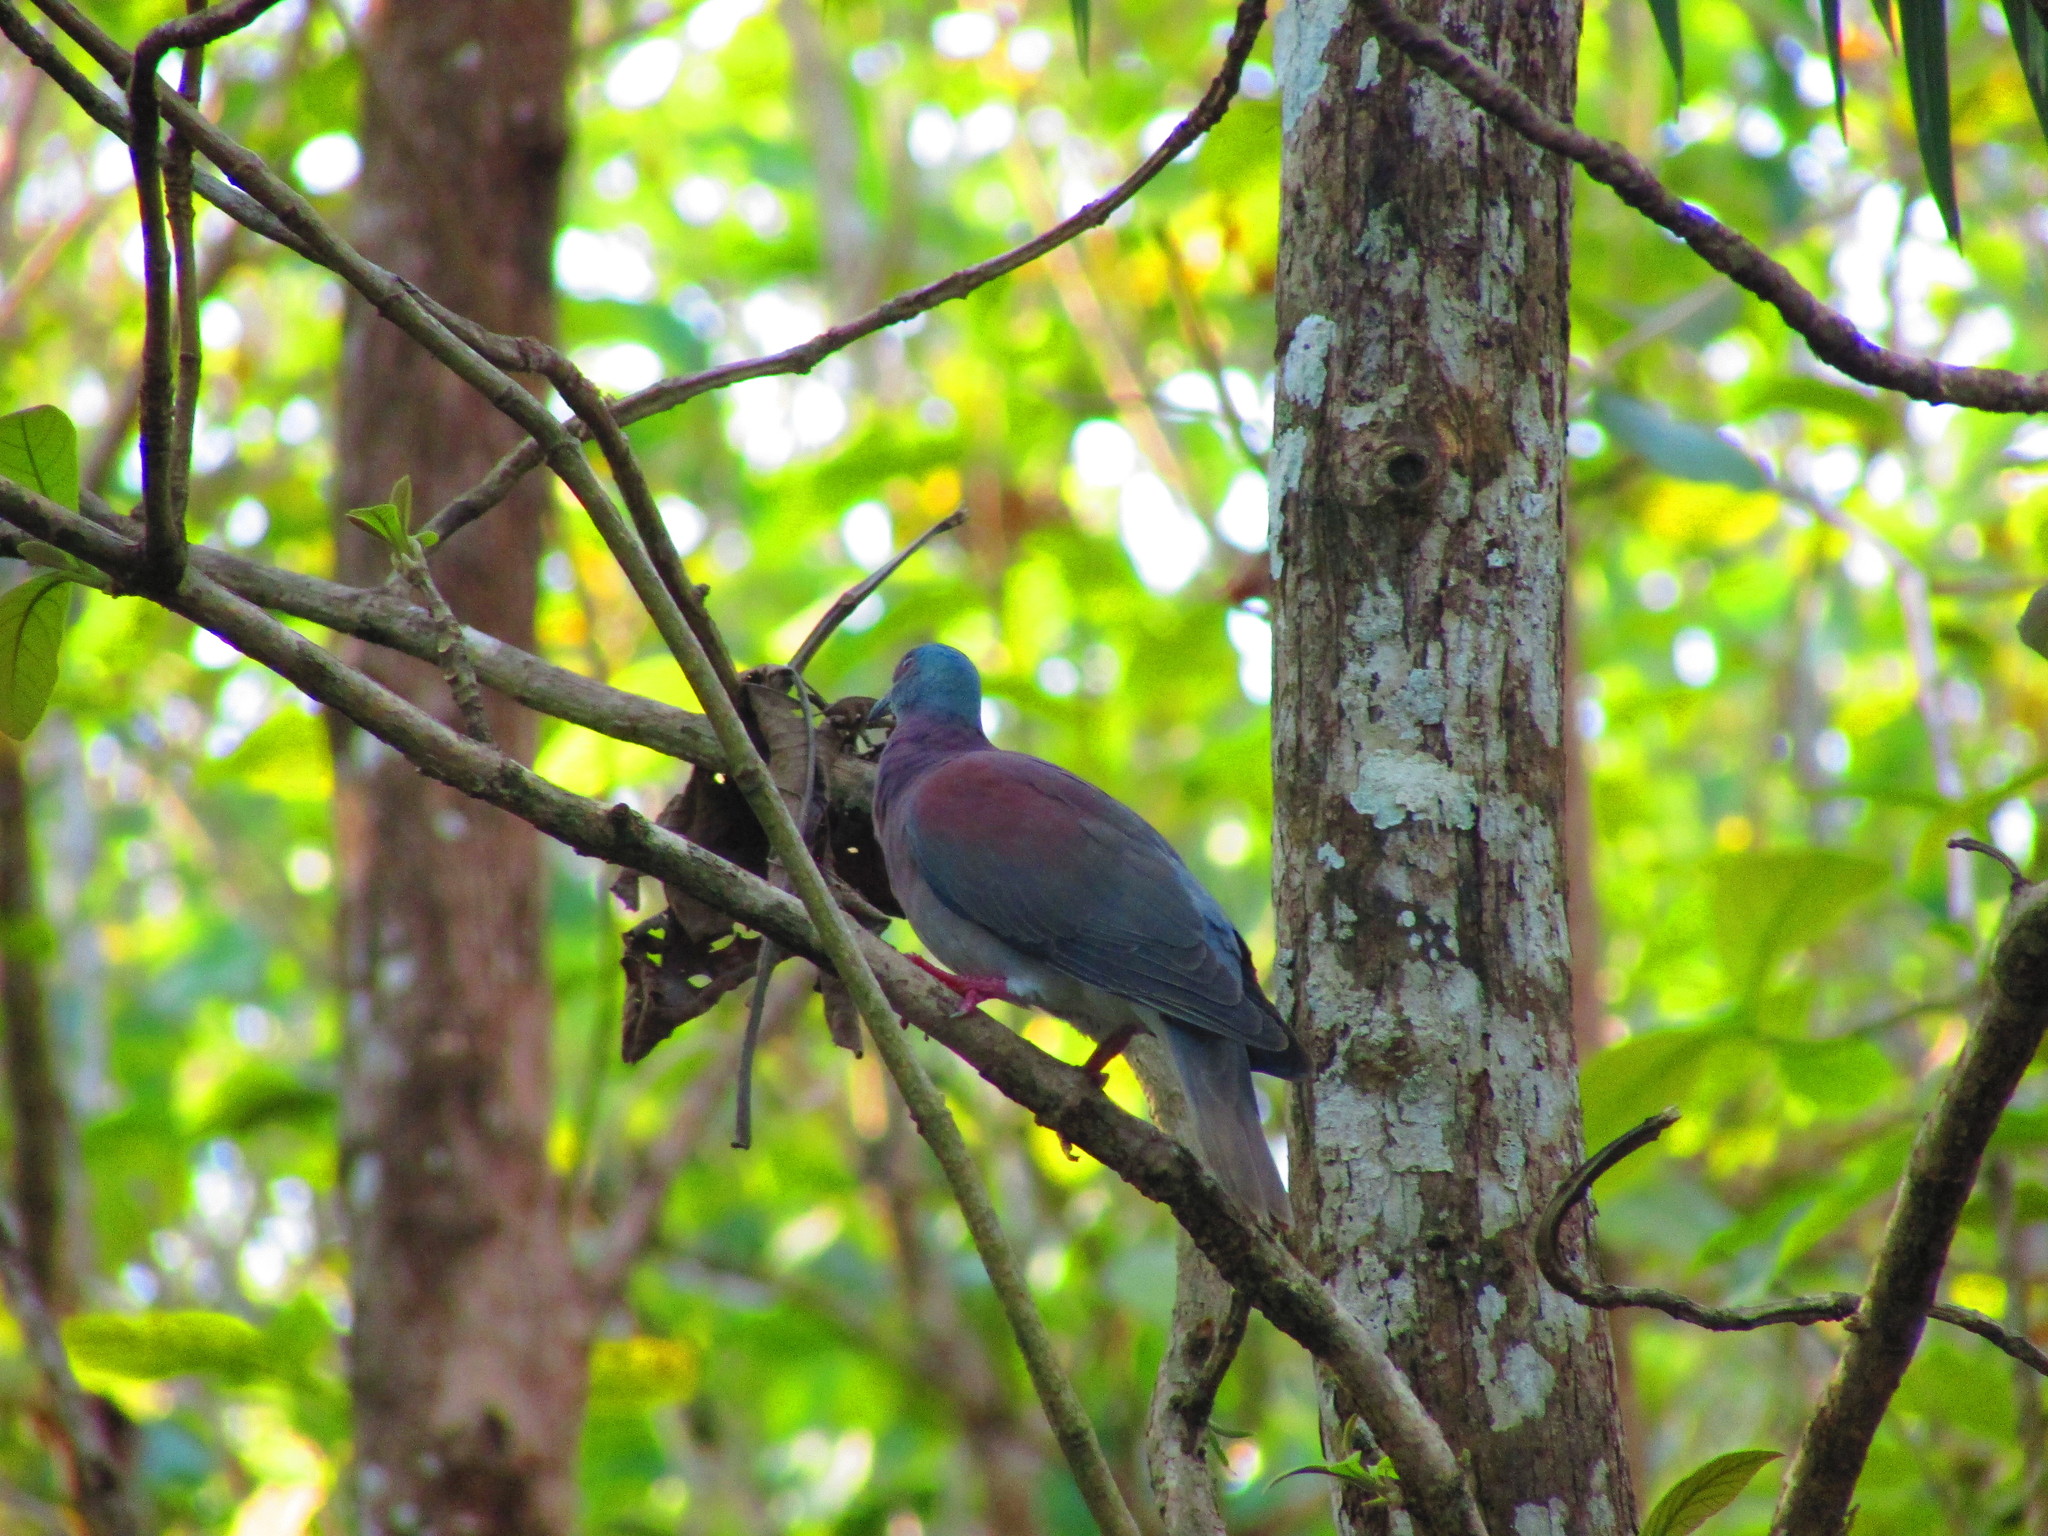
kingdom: Animalia
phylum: Chordata
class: Aves
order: Columbiformes
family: Columbidae
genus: Patagioenas
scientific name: Patagioenas cayennensis
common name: Pale-vented pigeon
